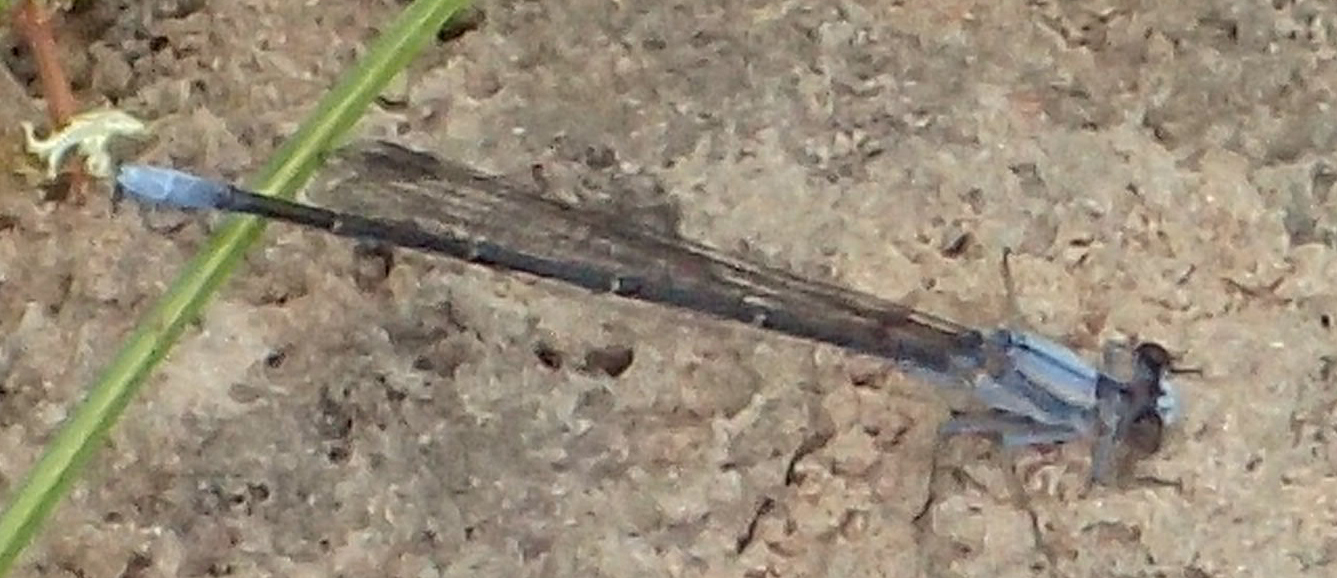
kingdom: Animalia
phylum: Arthropoda
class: Insecta
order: Odonata
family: Coenagrionidae
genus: Argia
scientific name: Argia moesta
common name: Powdered dancer
